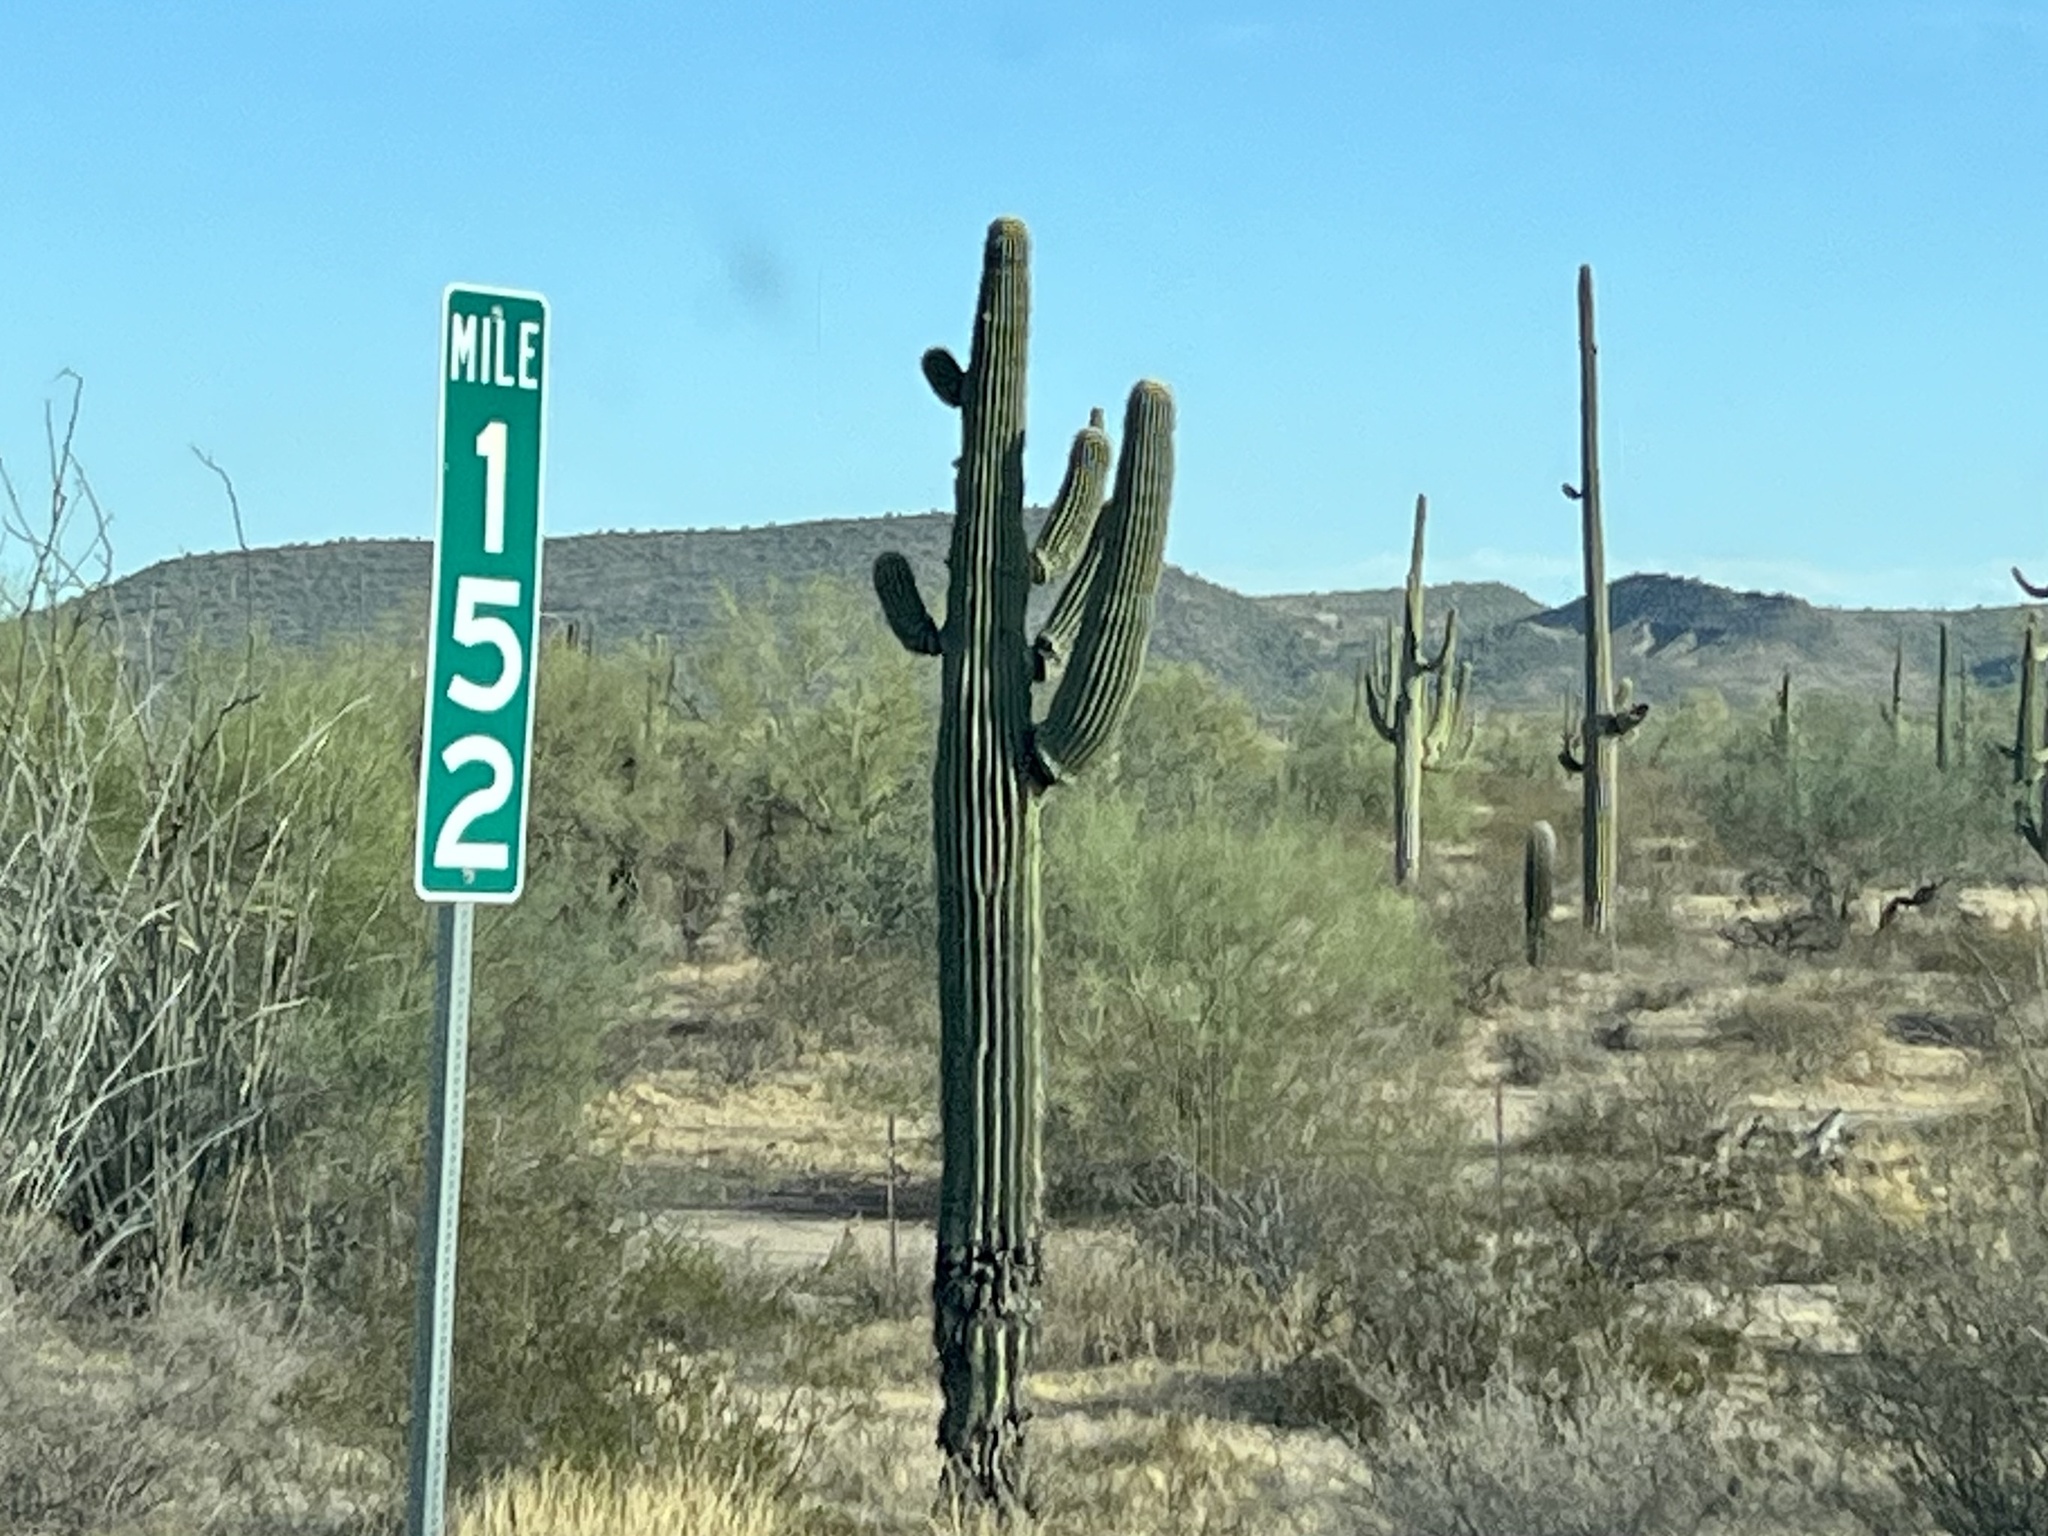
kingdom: Plantae
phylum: Tracheophyta
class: Magnoliopsida
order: Caryophyllales
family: Cactaceae
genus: Carnegiea
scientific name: Carnegiea gigantea
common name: Saguaro
